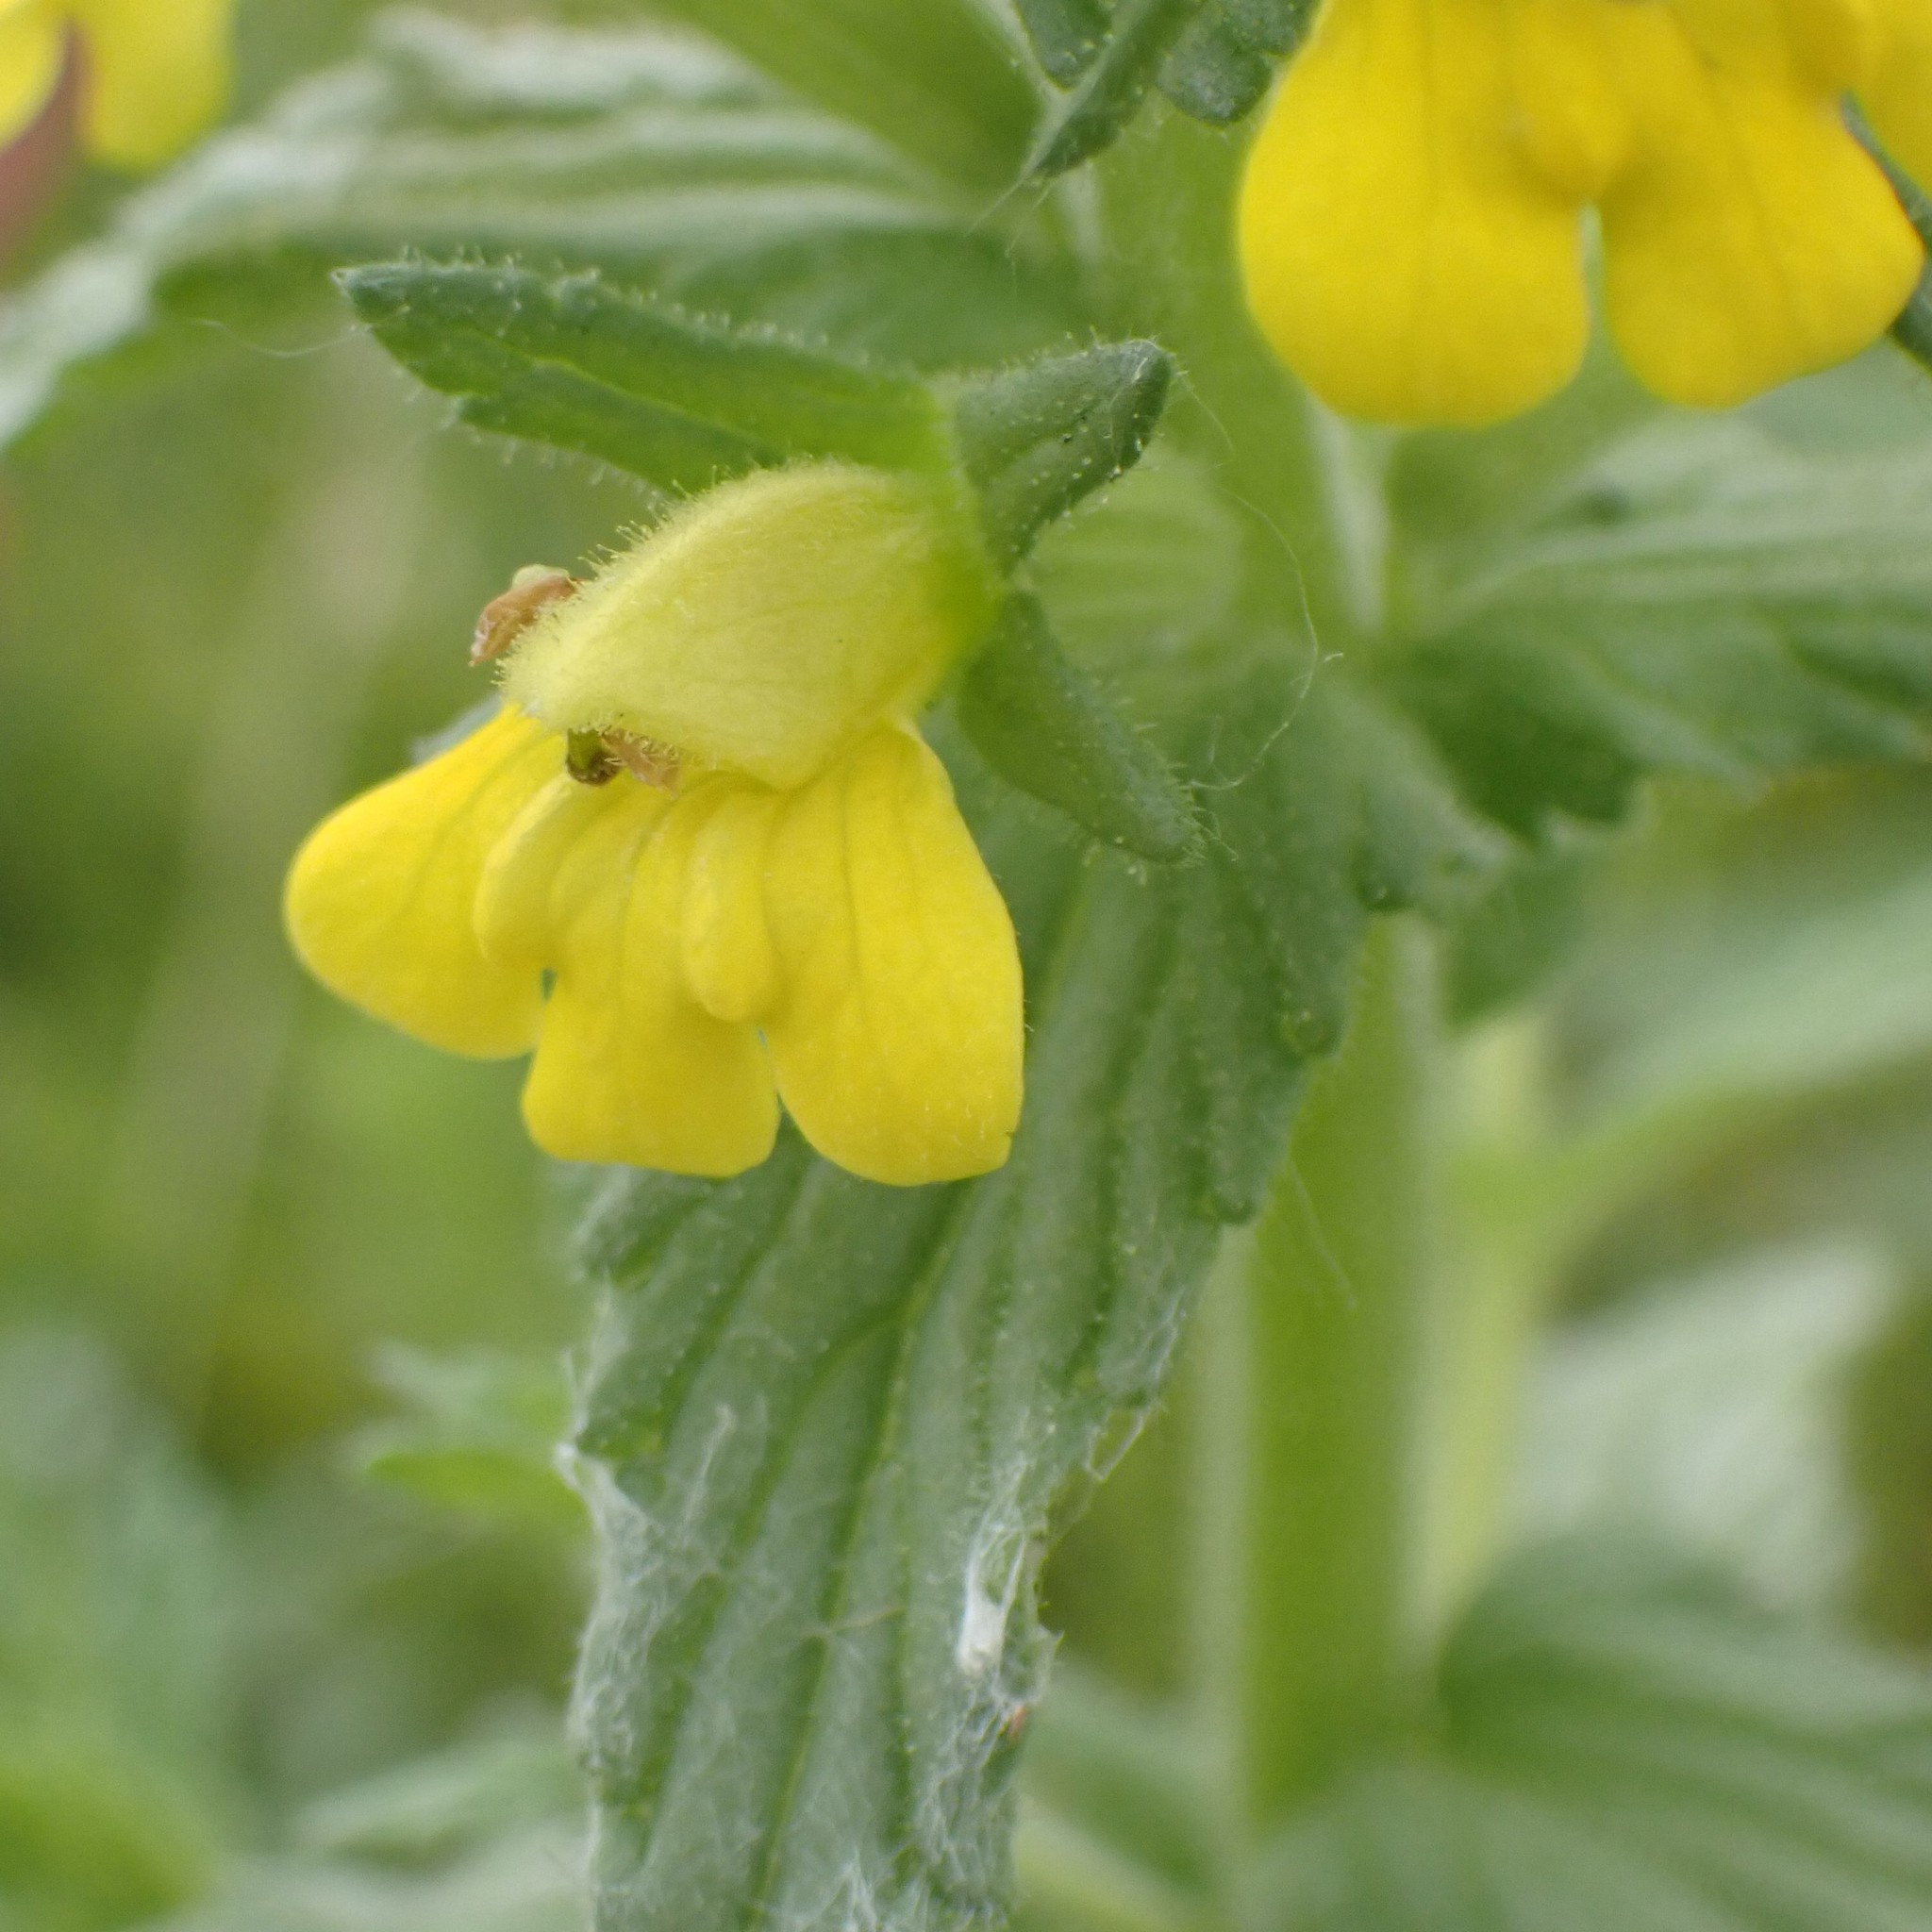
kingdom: Plantae
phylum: Tracheophyta
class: Magnoliopsida
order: Lamiales
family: Orobanchaceae
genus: Bellardia
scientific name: Bellardia viscosa
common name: Sticky parentucellia
